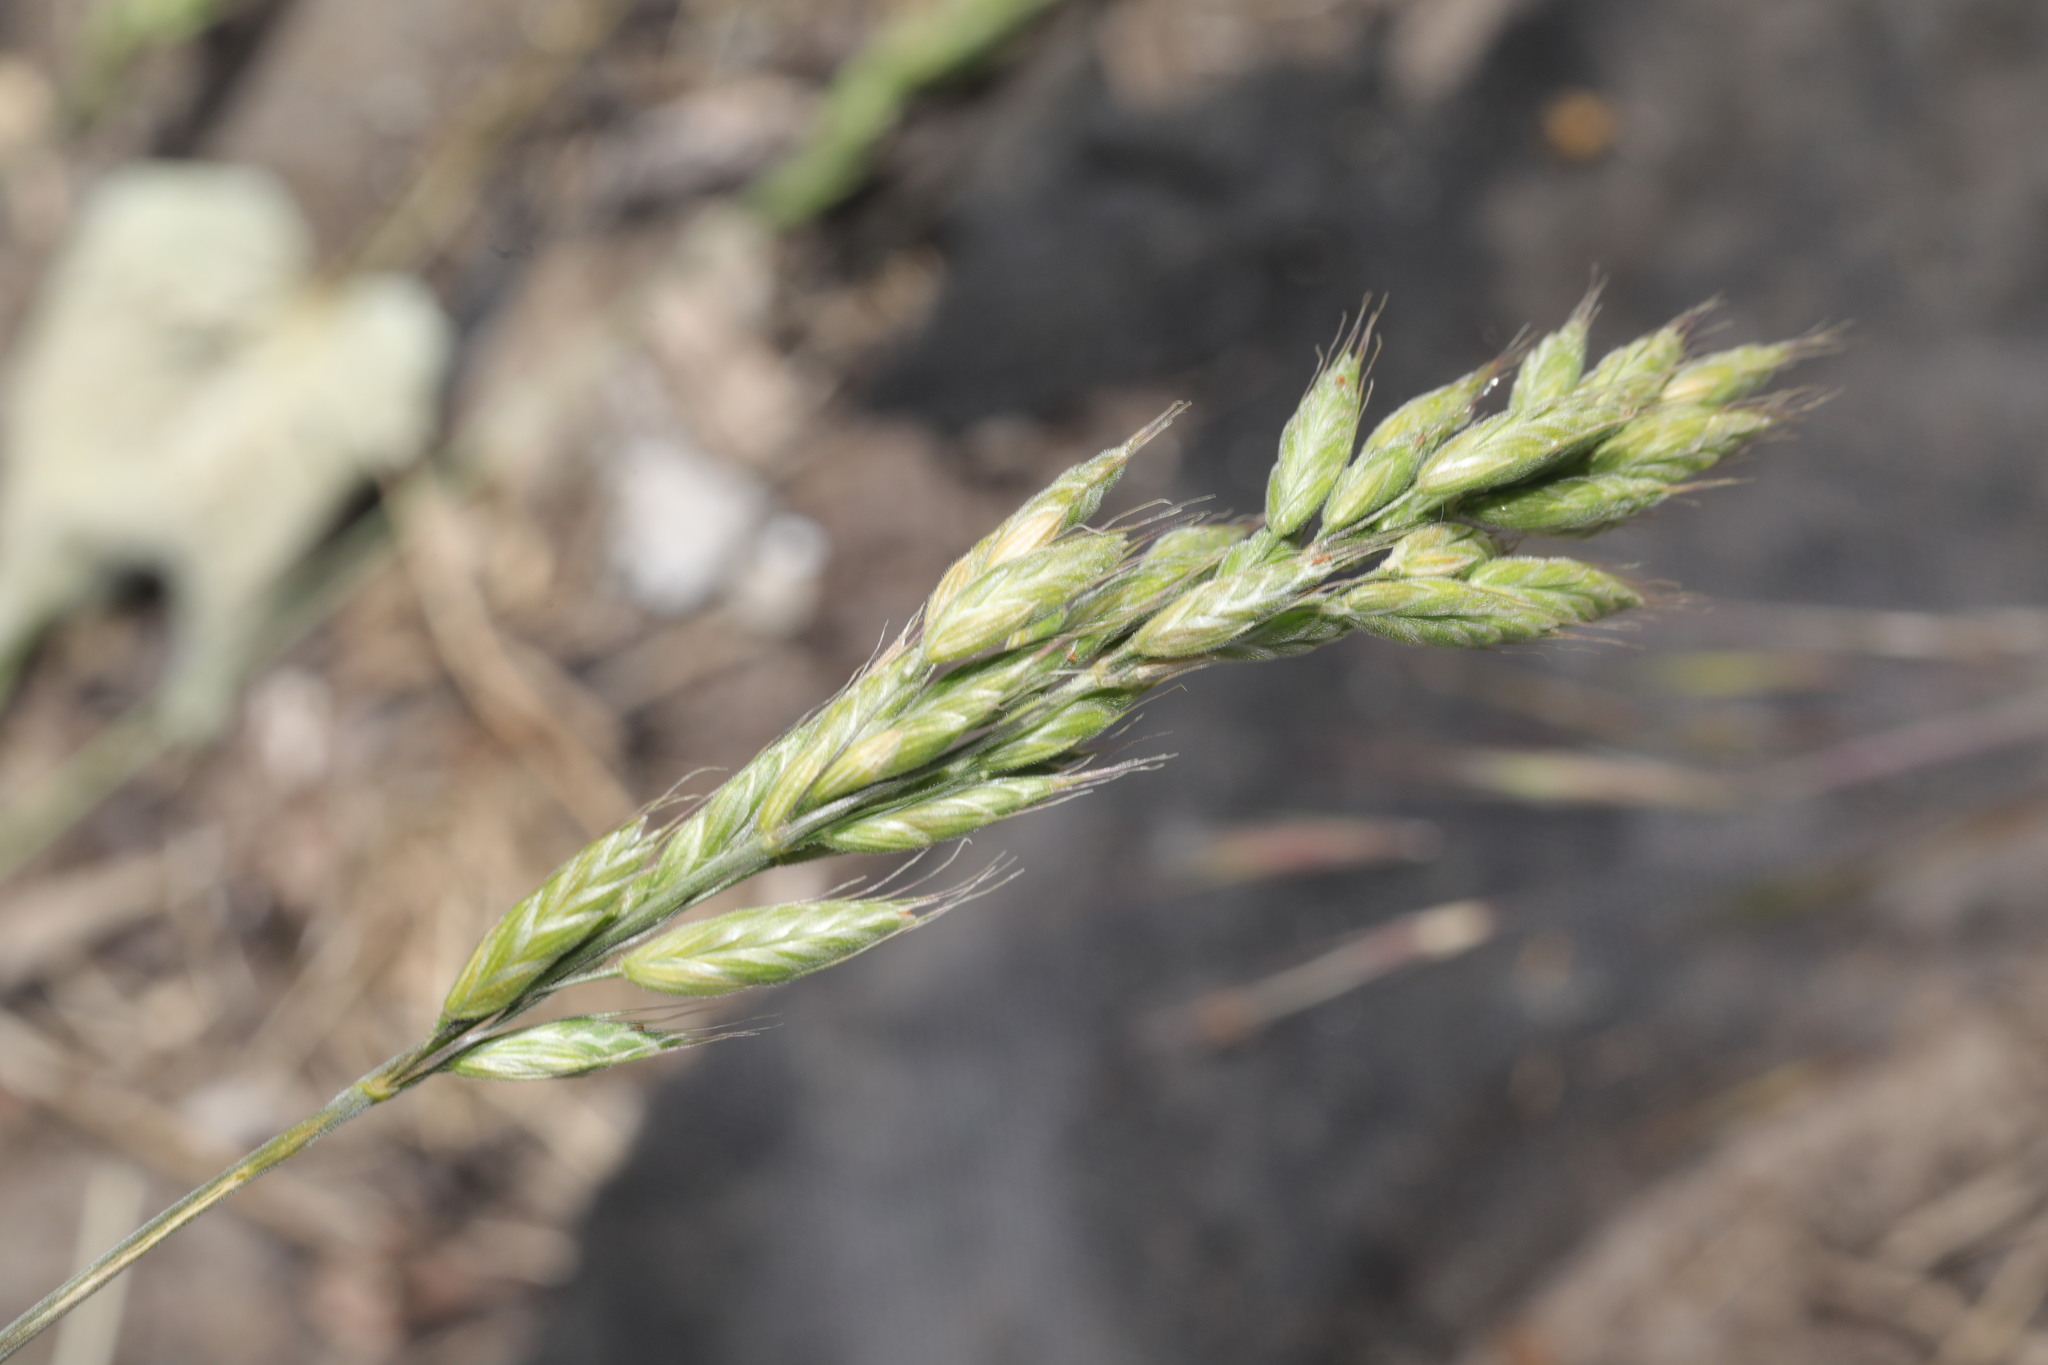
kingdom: Plantae
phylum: Tracheophyta
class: Liliopsida
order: Poales
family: Poaceae
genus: Bromus
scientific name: Bromus hordeaceus
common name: Soft brome
